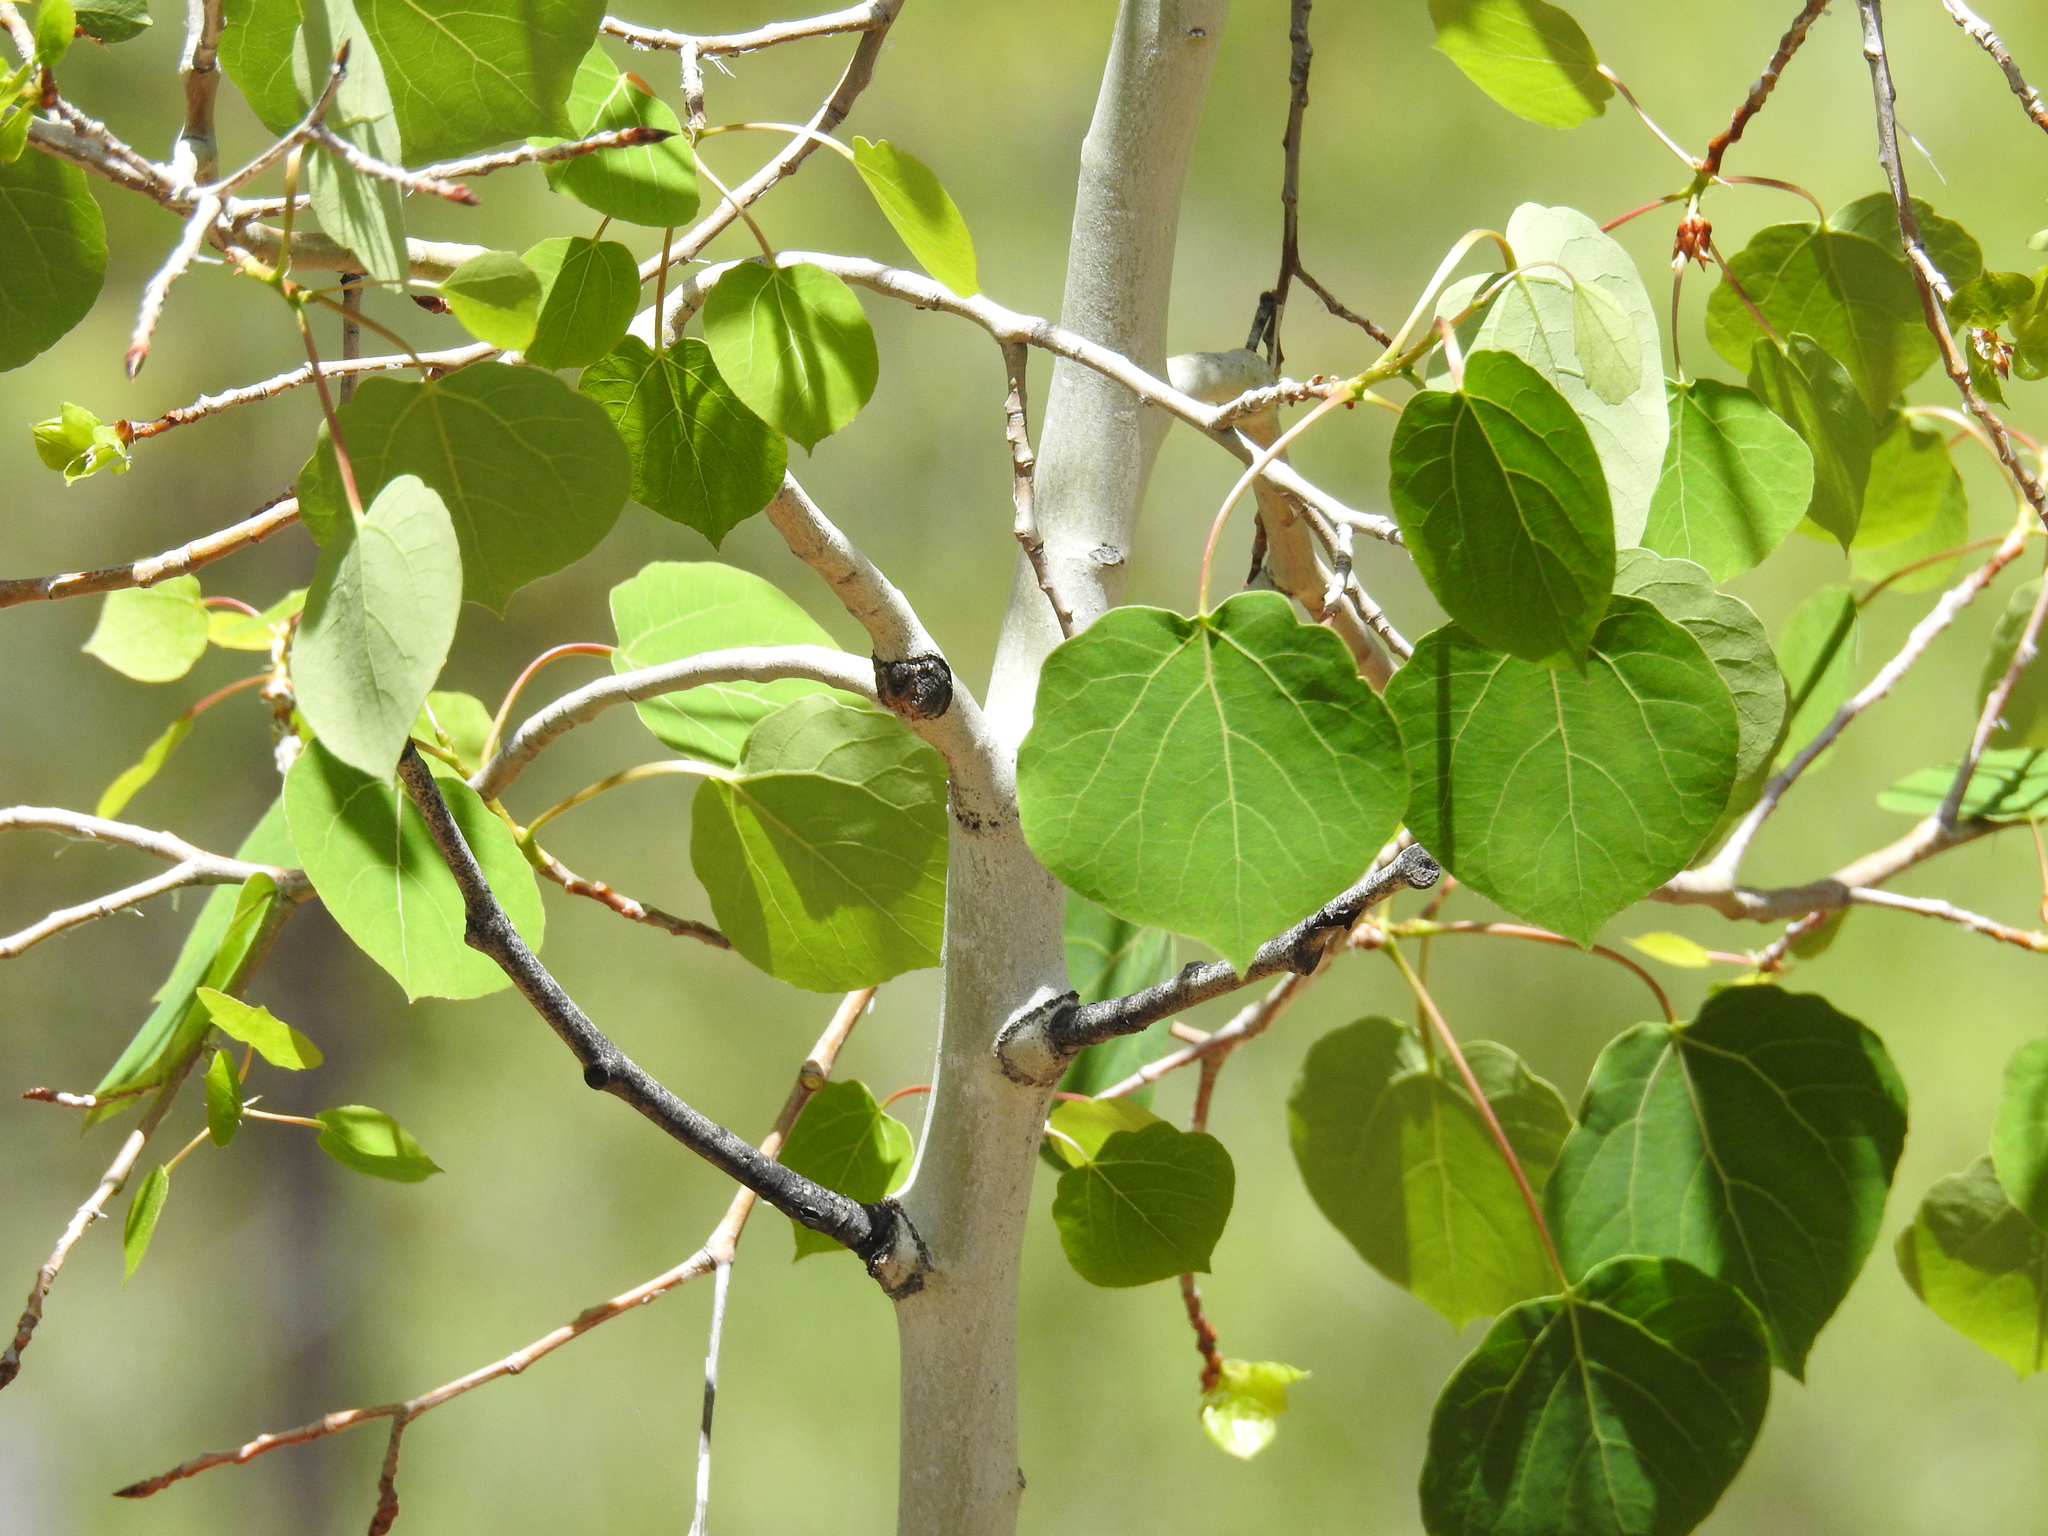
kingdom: Plantae
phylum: Tracheophyta
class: Magnoliopsida
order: Malpighiales
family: Salicaceae
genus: Populus
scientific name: Populus tremuloides
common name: Quaking aspen
